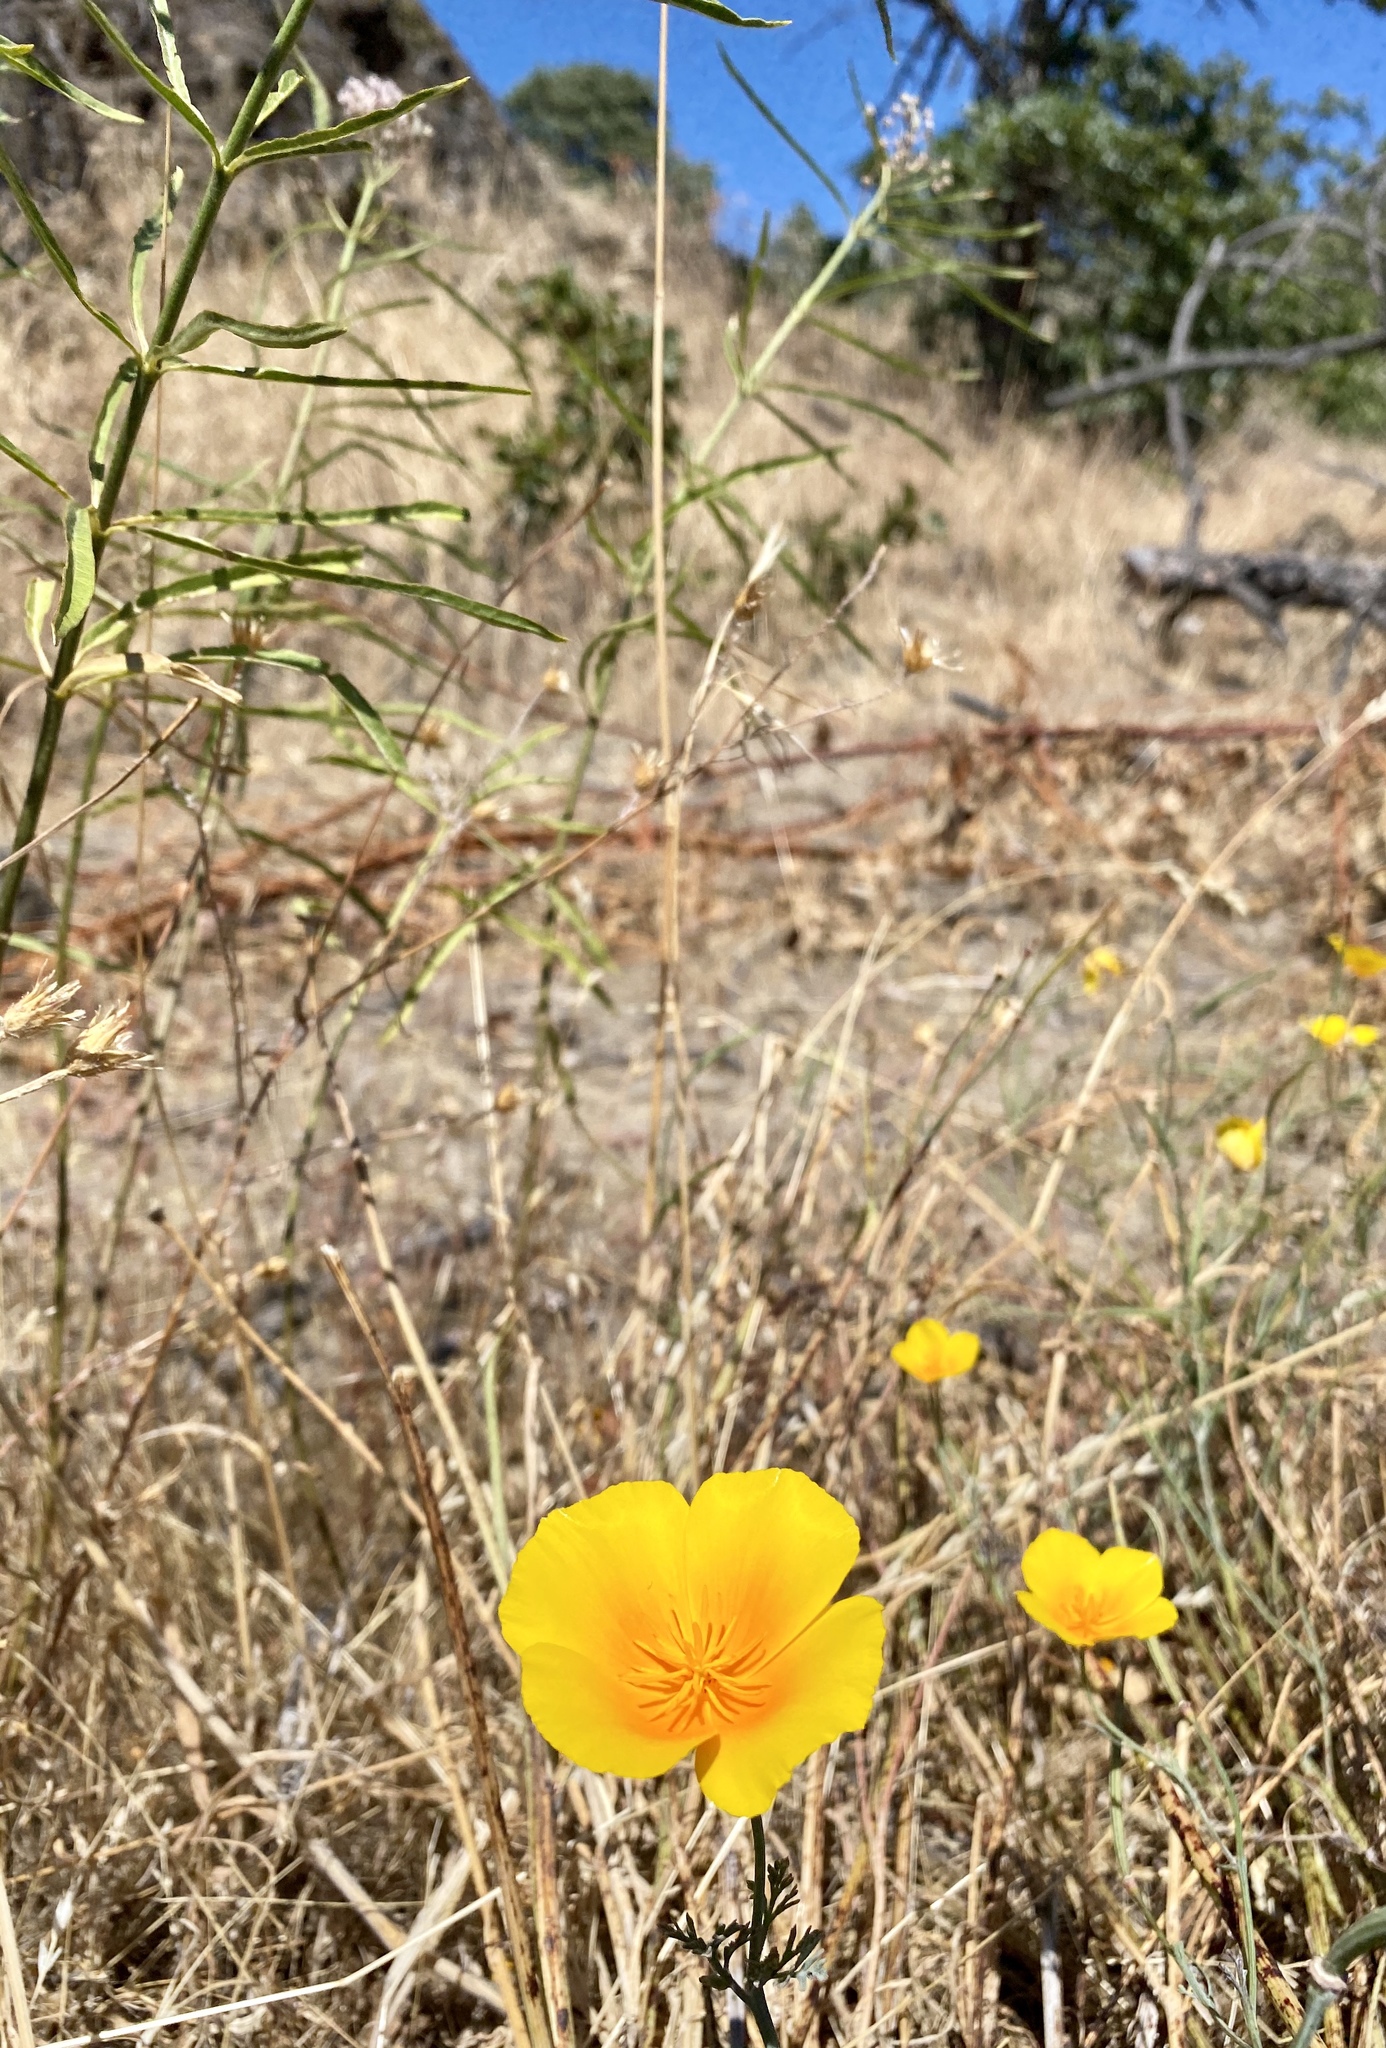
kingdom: Plantae
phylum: Tracheophyta
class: Magnoliopsida
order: Ranunculales
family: Papaveraceae
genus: Eschscholzia
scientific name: Eschscholzia californica
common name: California poppy
